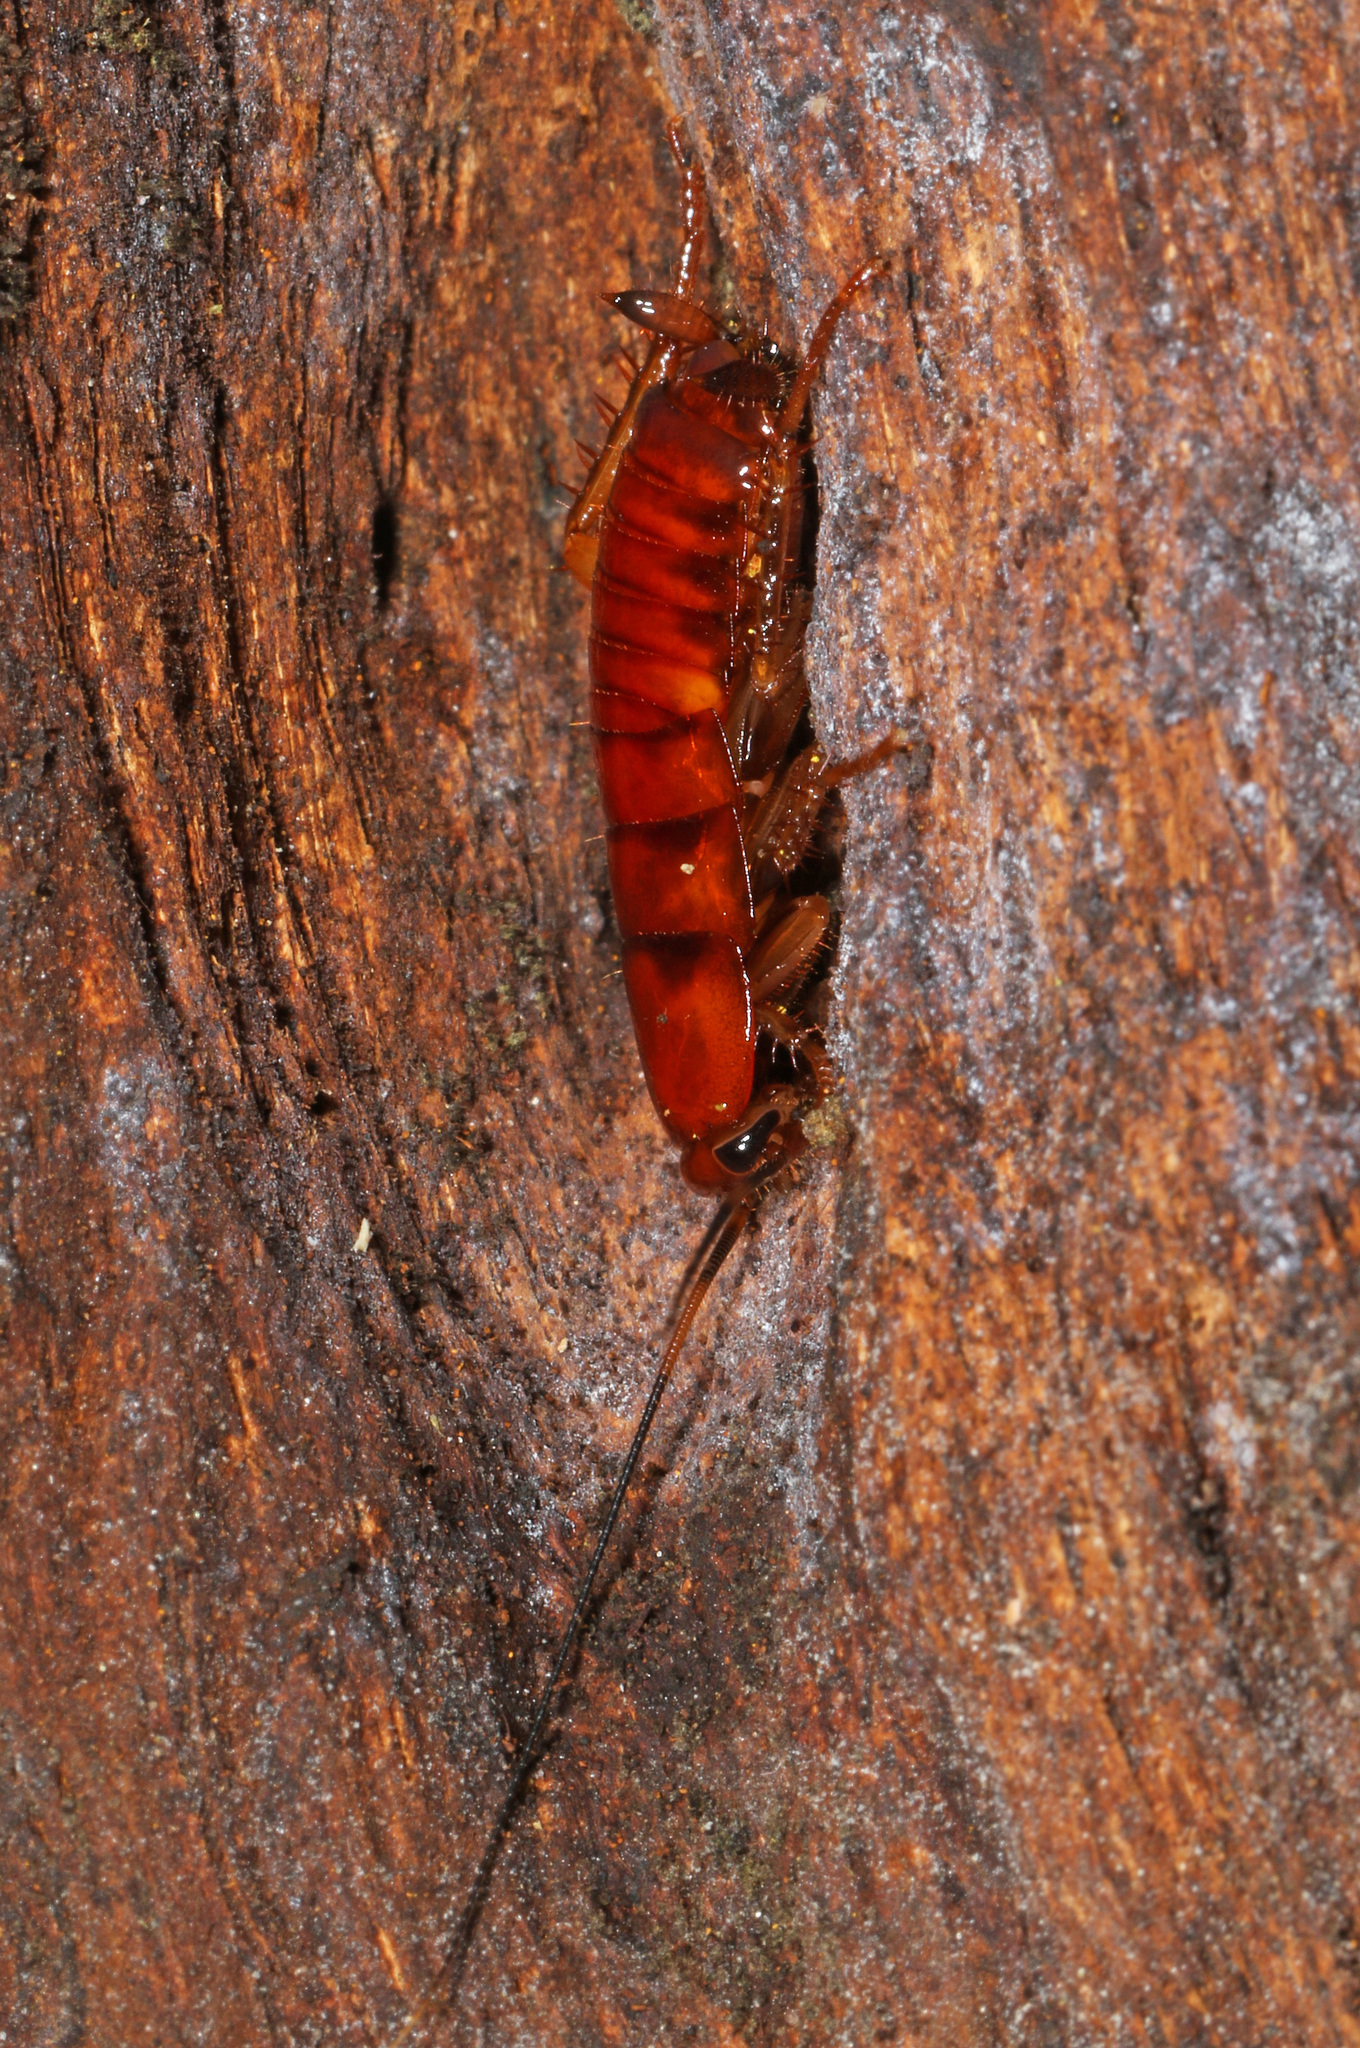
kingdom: Animalia
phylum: Arthropoda
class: Insecta
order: Blattodea
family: Blattidae
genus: Periplaneta
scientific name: Periplaneta fuliginosa
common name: Smokeybrown cockroad
